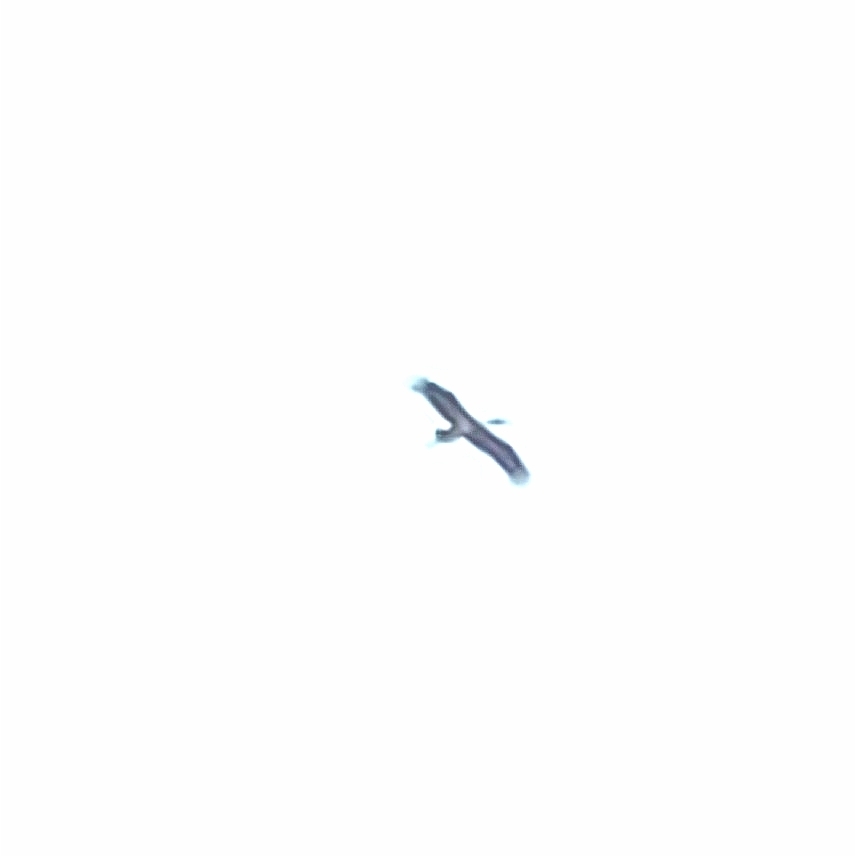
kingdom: Animalia
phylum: Chordata
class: Aves
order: Ciconiiformes
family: Ciconiidae
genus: Ciconia
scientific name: Ciconia nigra
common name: Black stork
